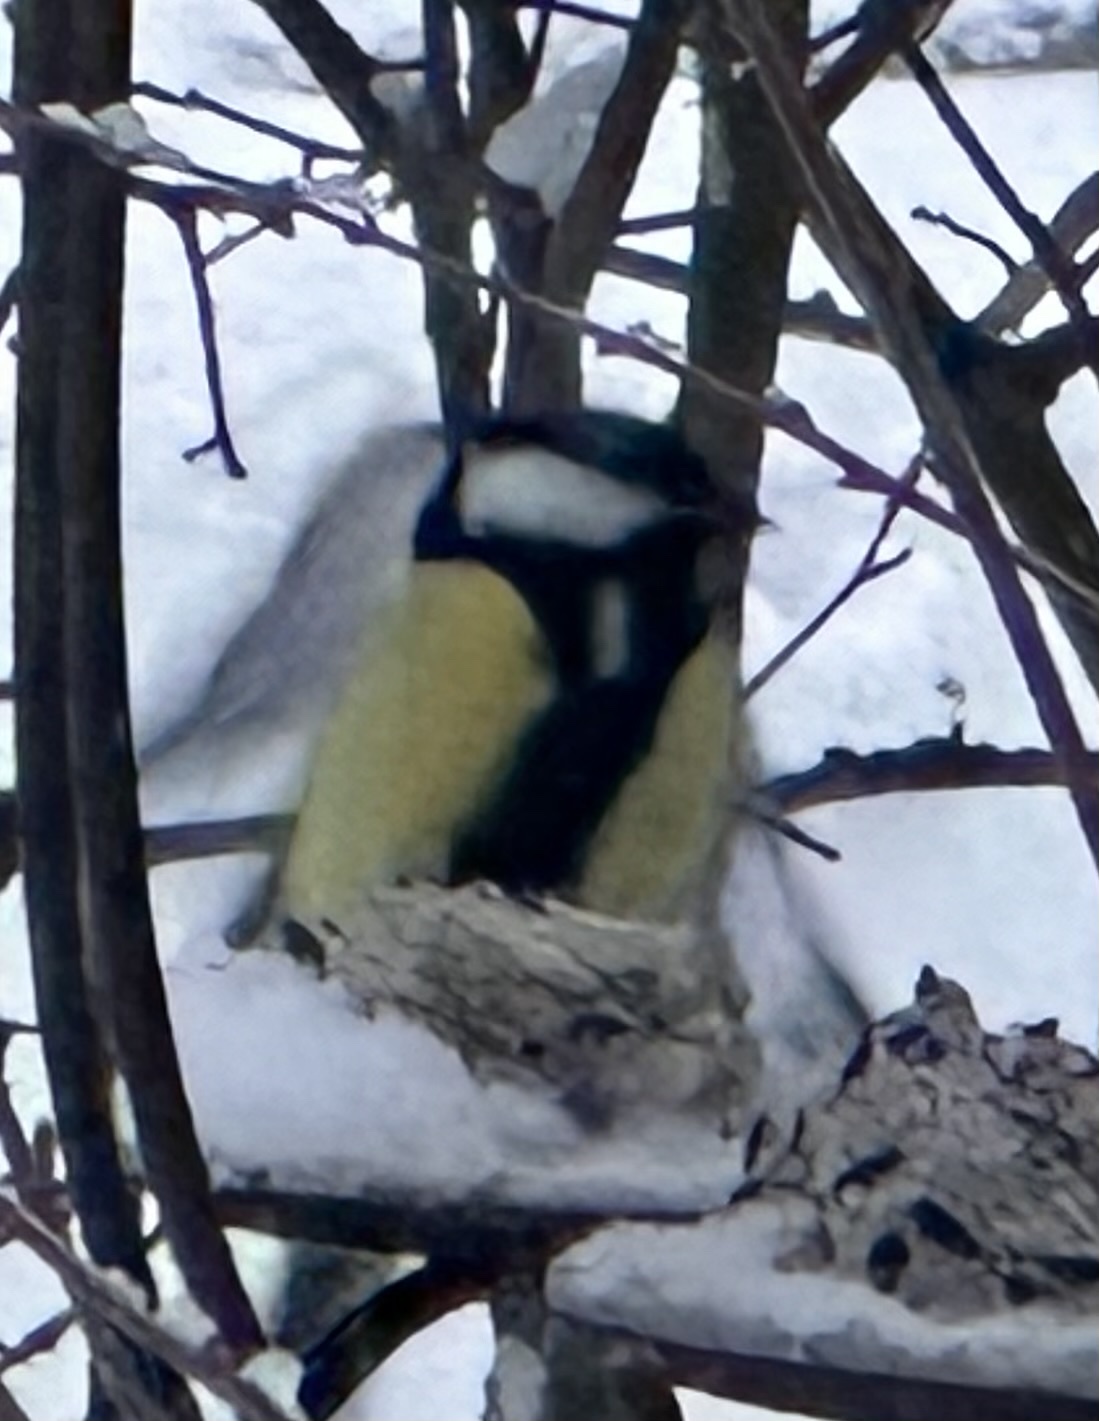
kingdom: Animalia
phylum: Chordata
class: Aves
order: Passeriformes
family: Paridae
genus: Parus
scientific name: Parus major
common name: Great tit
